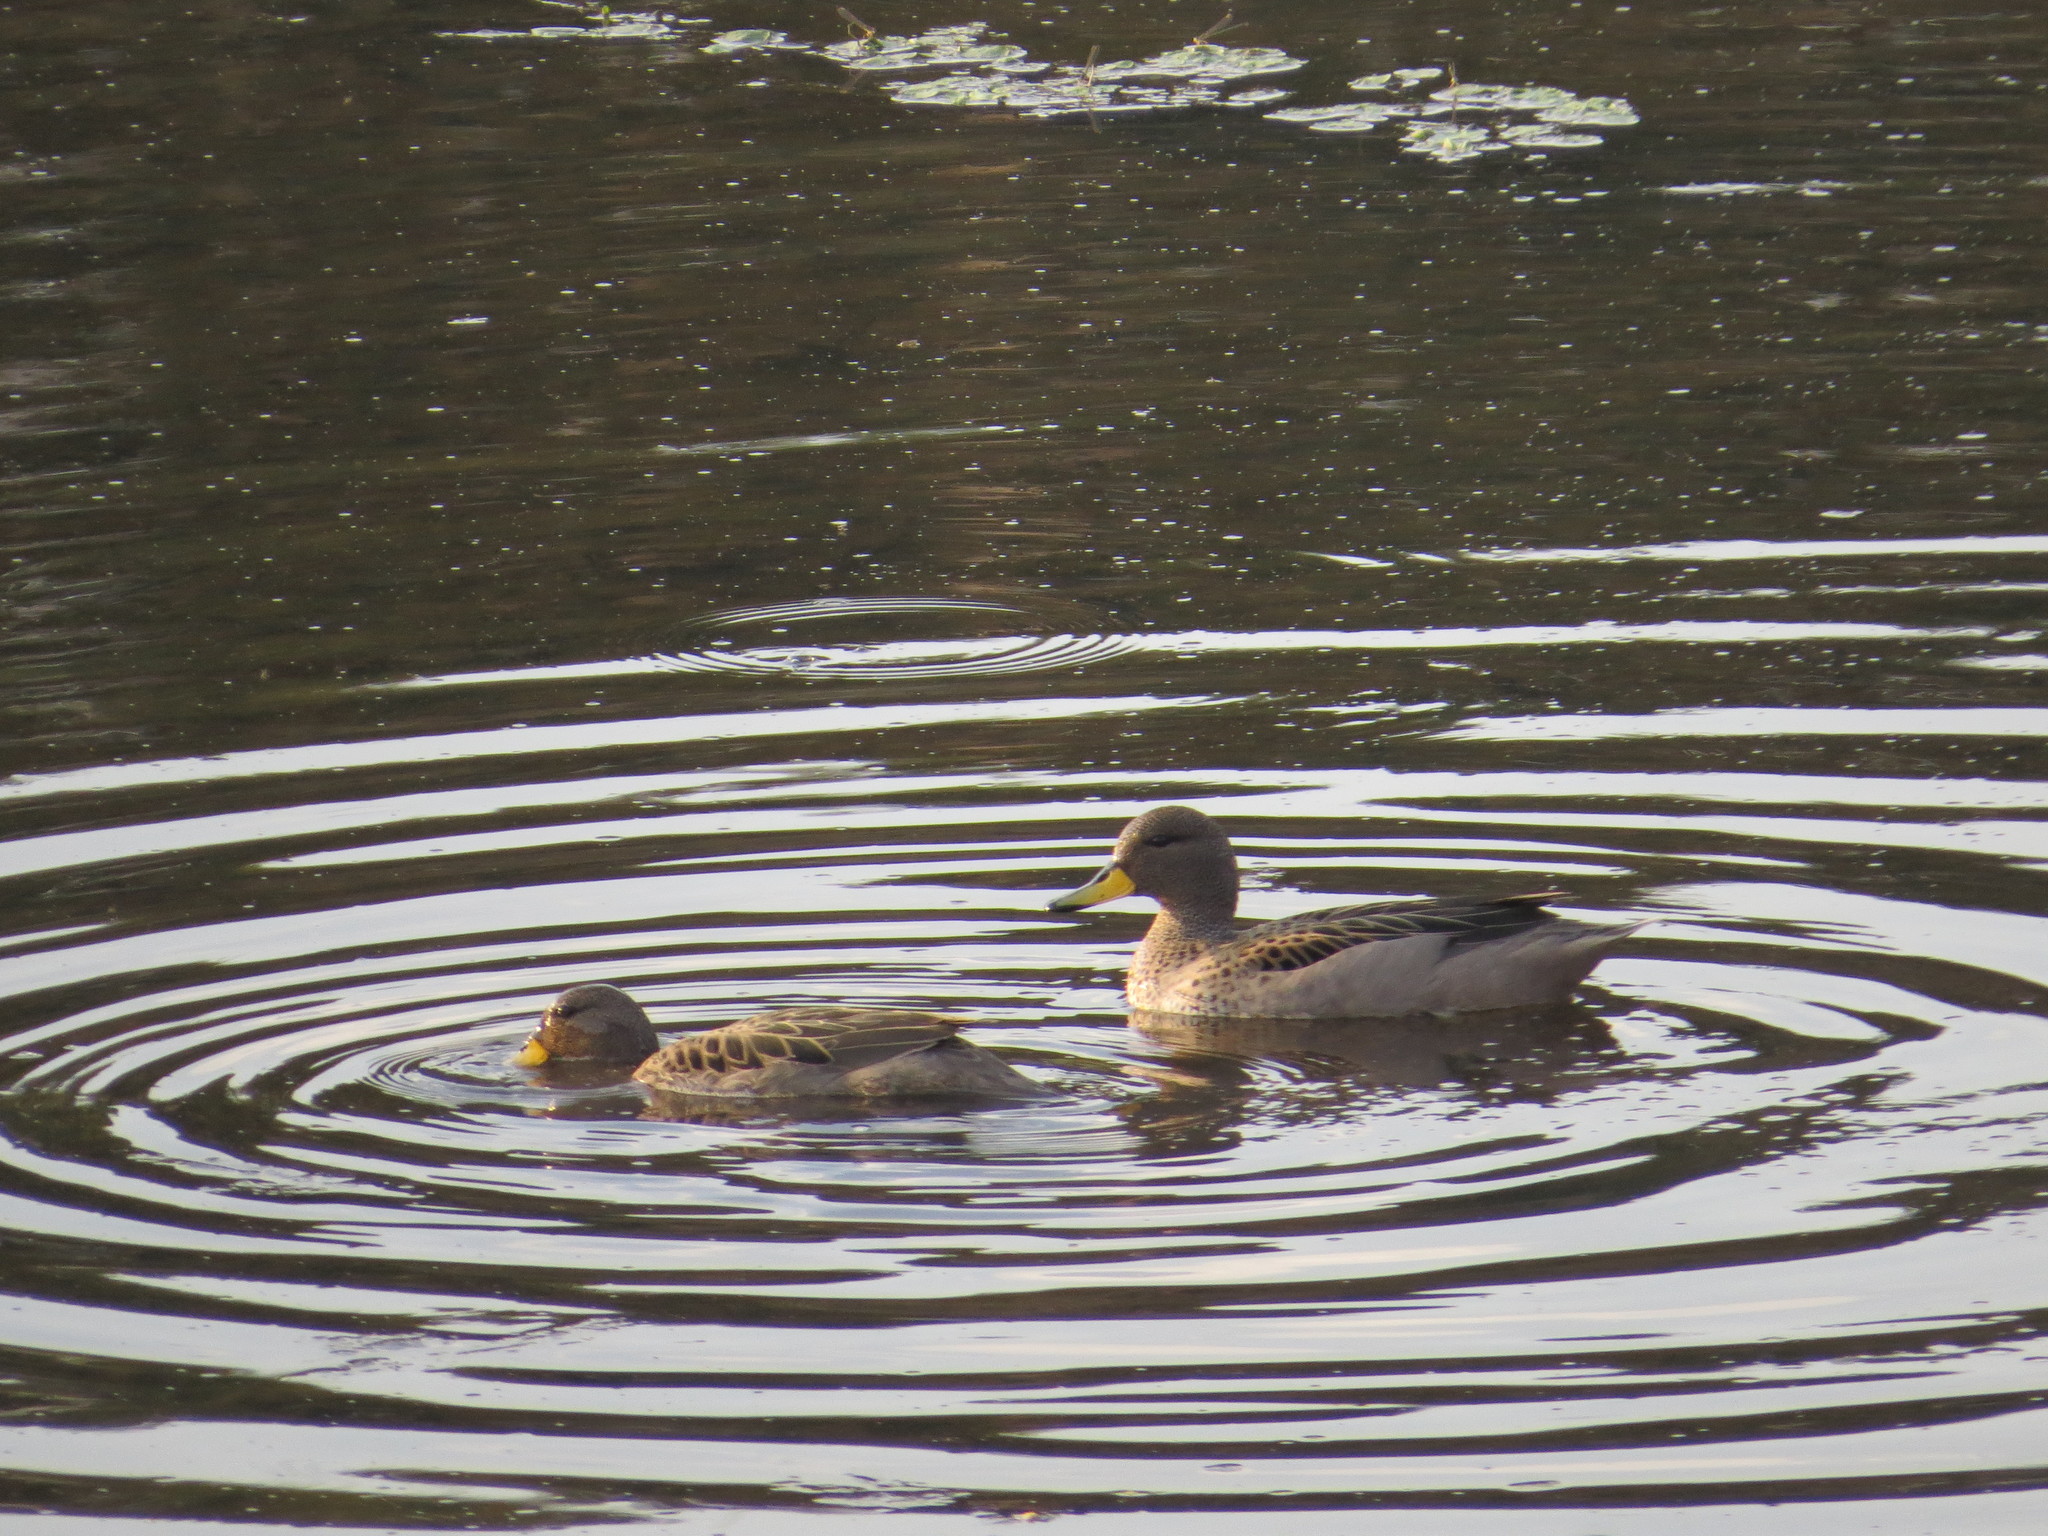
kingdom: Animalia
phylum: Chordata
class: Aves
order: Anseriformes
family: Anatidae
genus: Anas
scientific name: Anas flavirostris
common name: Yellow-billed teal
